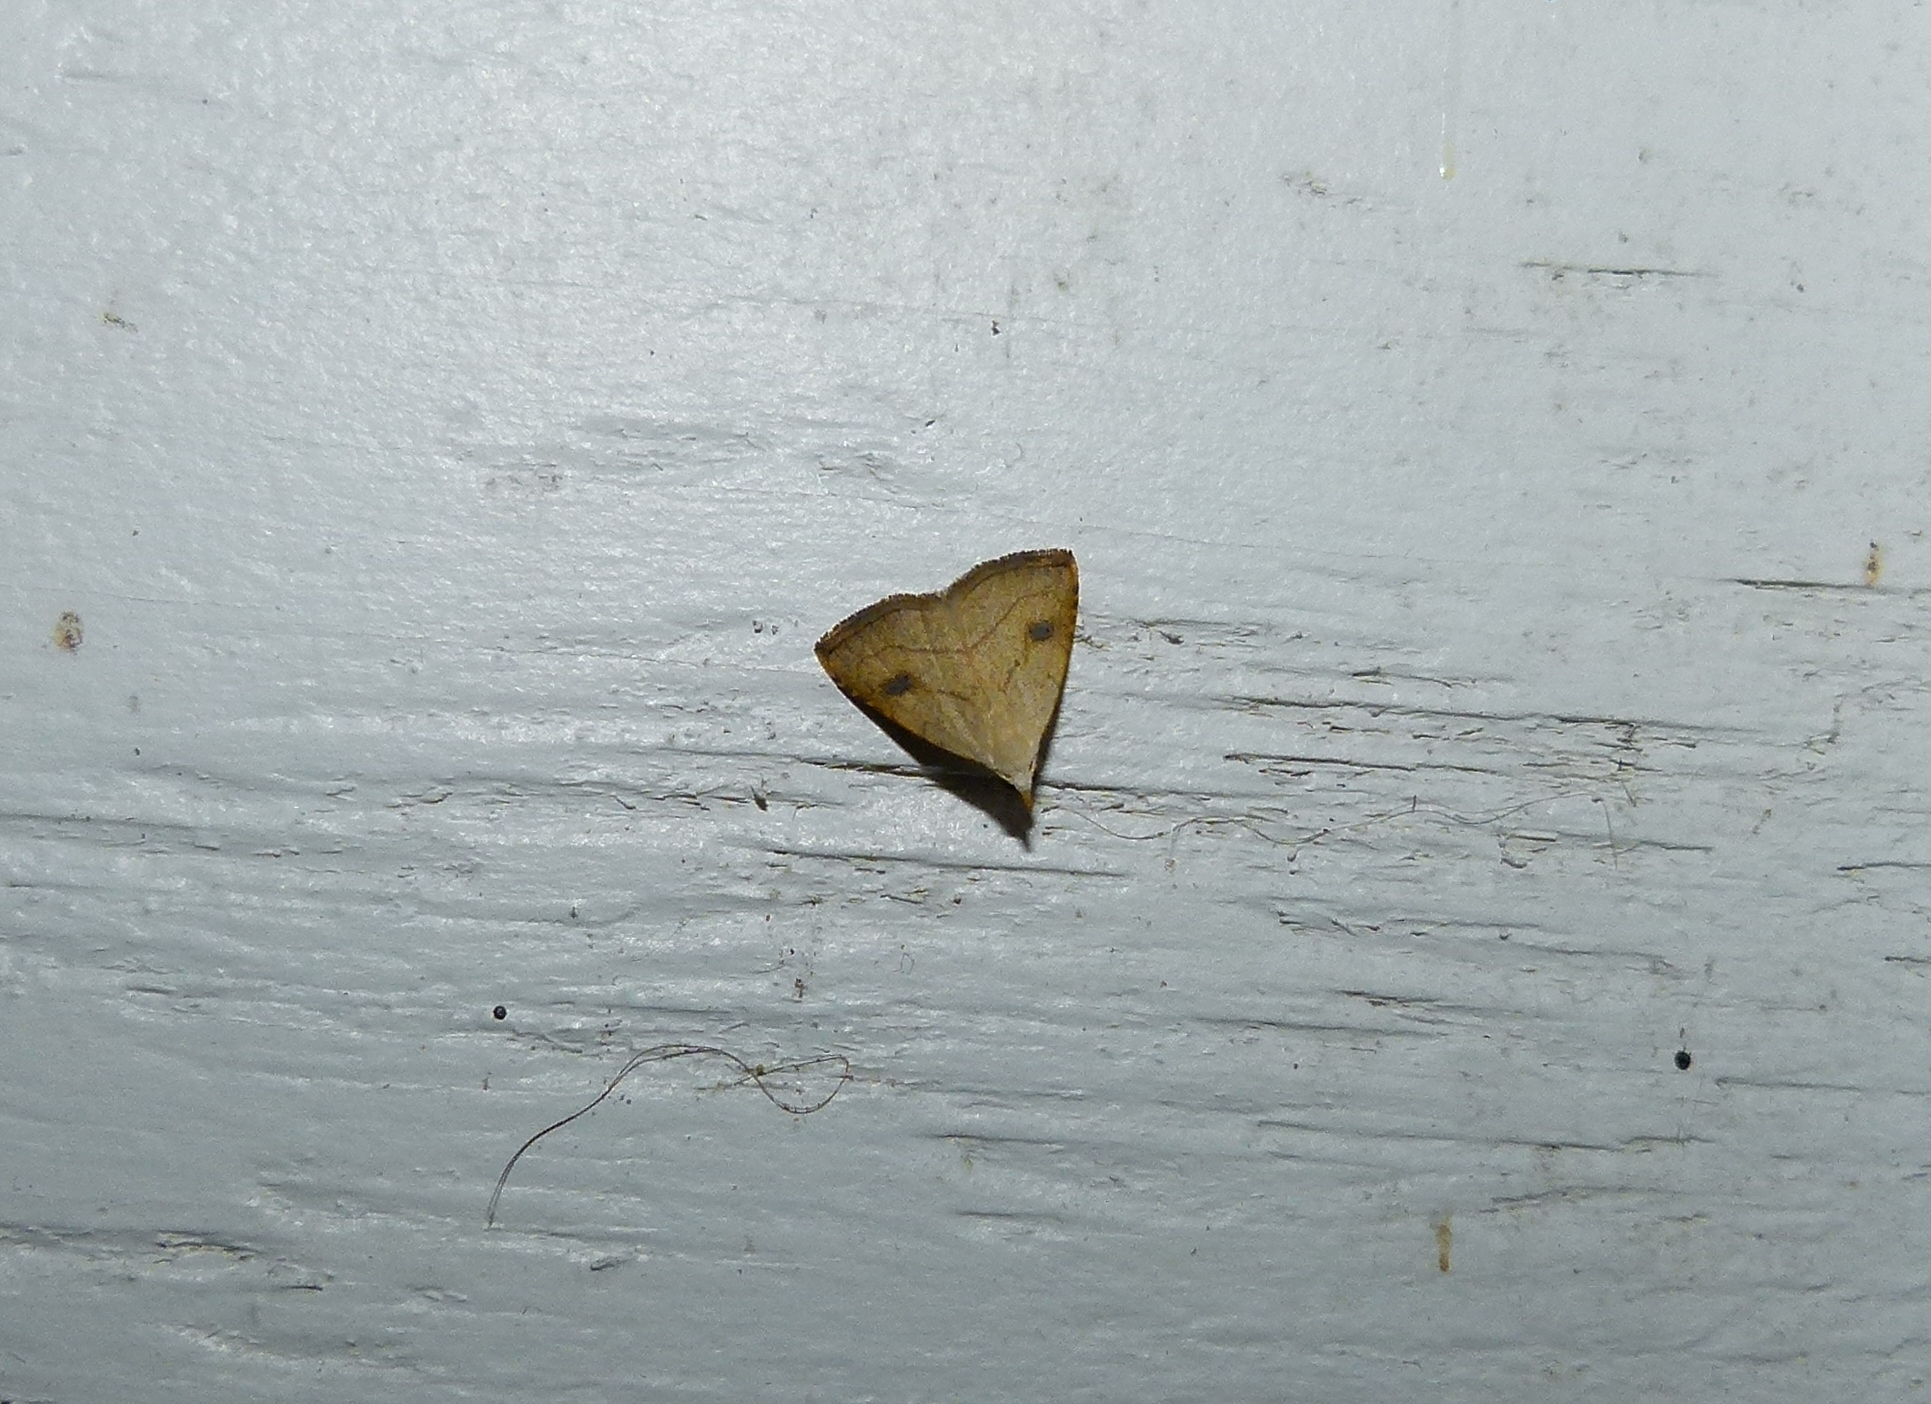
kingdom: Animalia
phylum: Arthropoda
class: Insecta
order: Lepidoptera
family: Erebidae
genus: Rivula
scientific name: Rivula propinqualis
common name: Spotted grass moth
